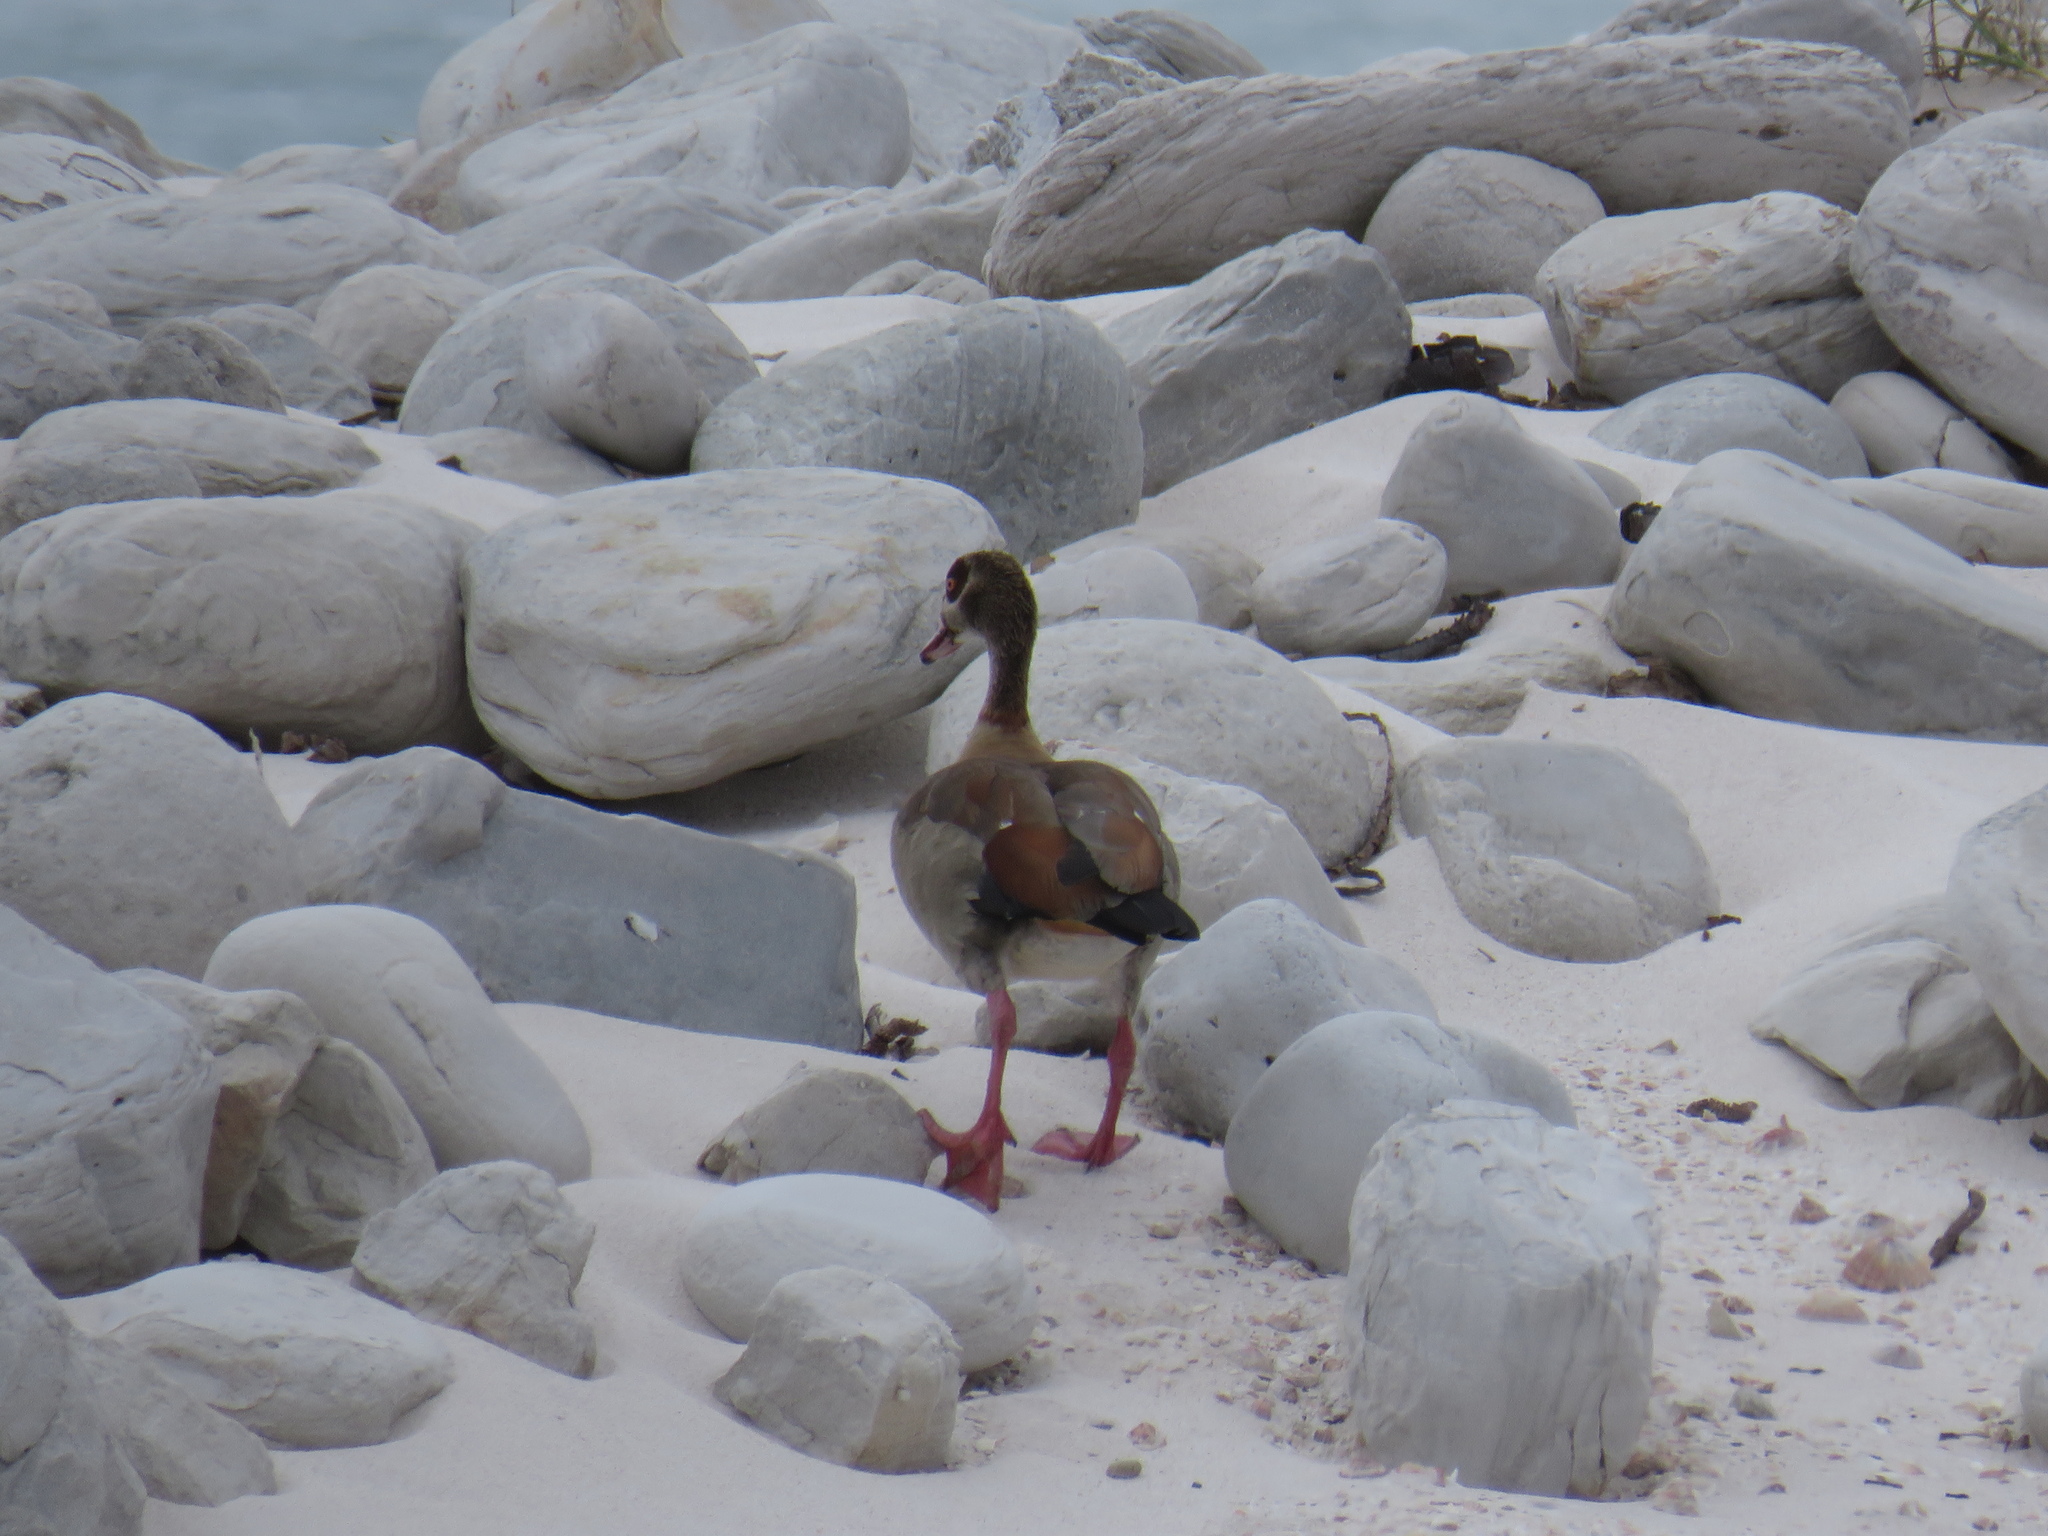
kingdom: Animalia
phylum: Chordata
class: Aves
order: Anseriformes
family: Anatidae
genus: Alopochen
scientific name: Alopochen aegyptiaca
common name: Egyptian goose
